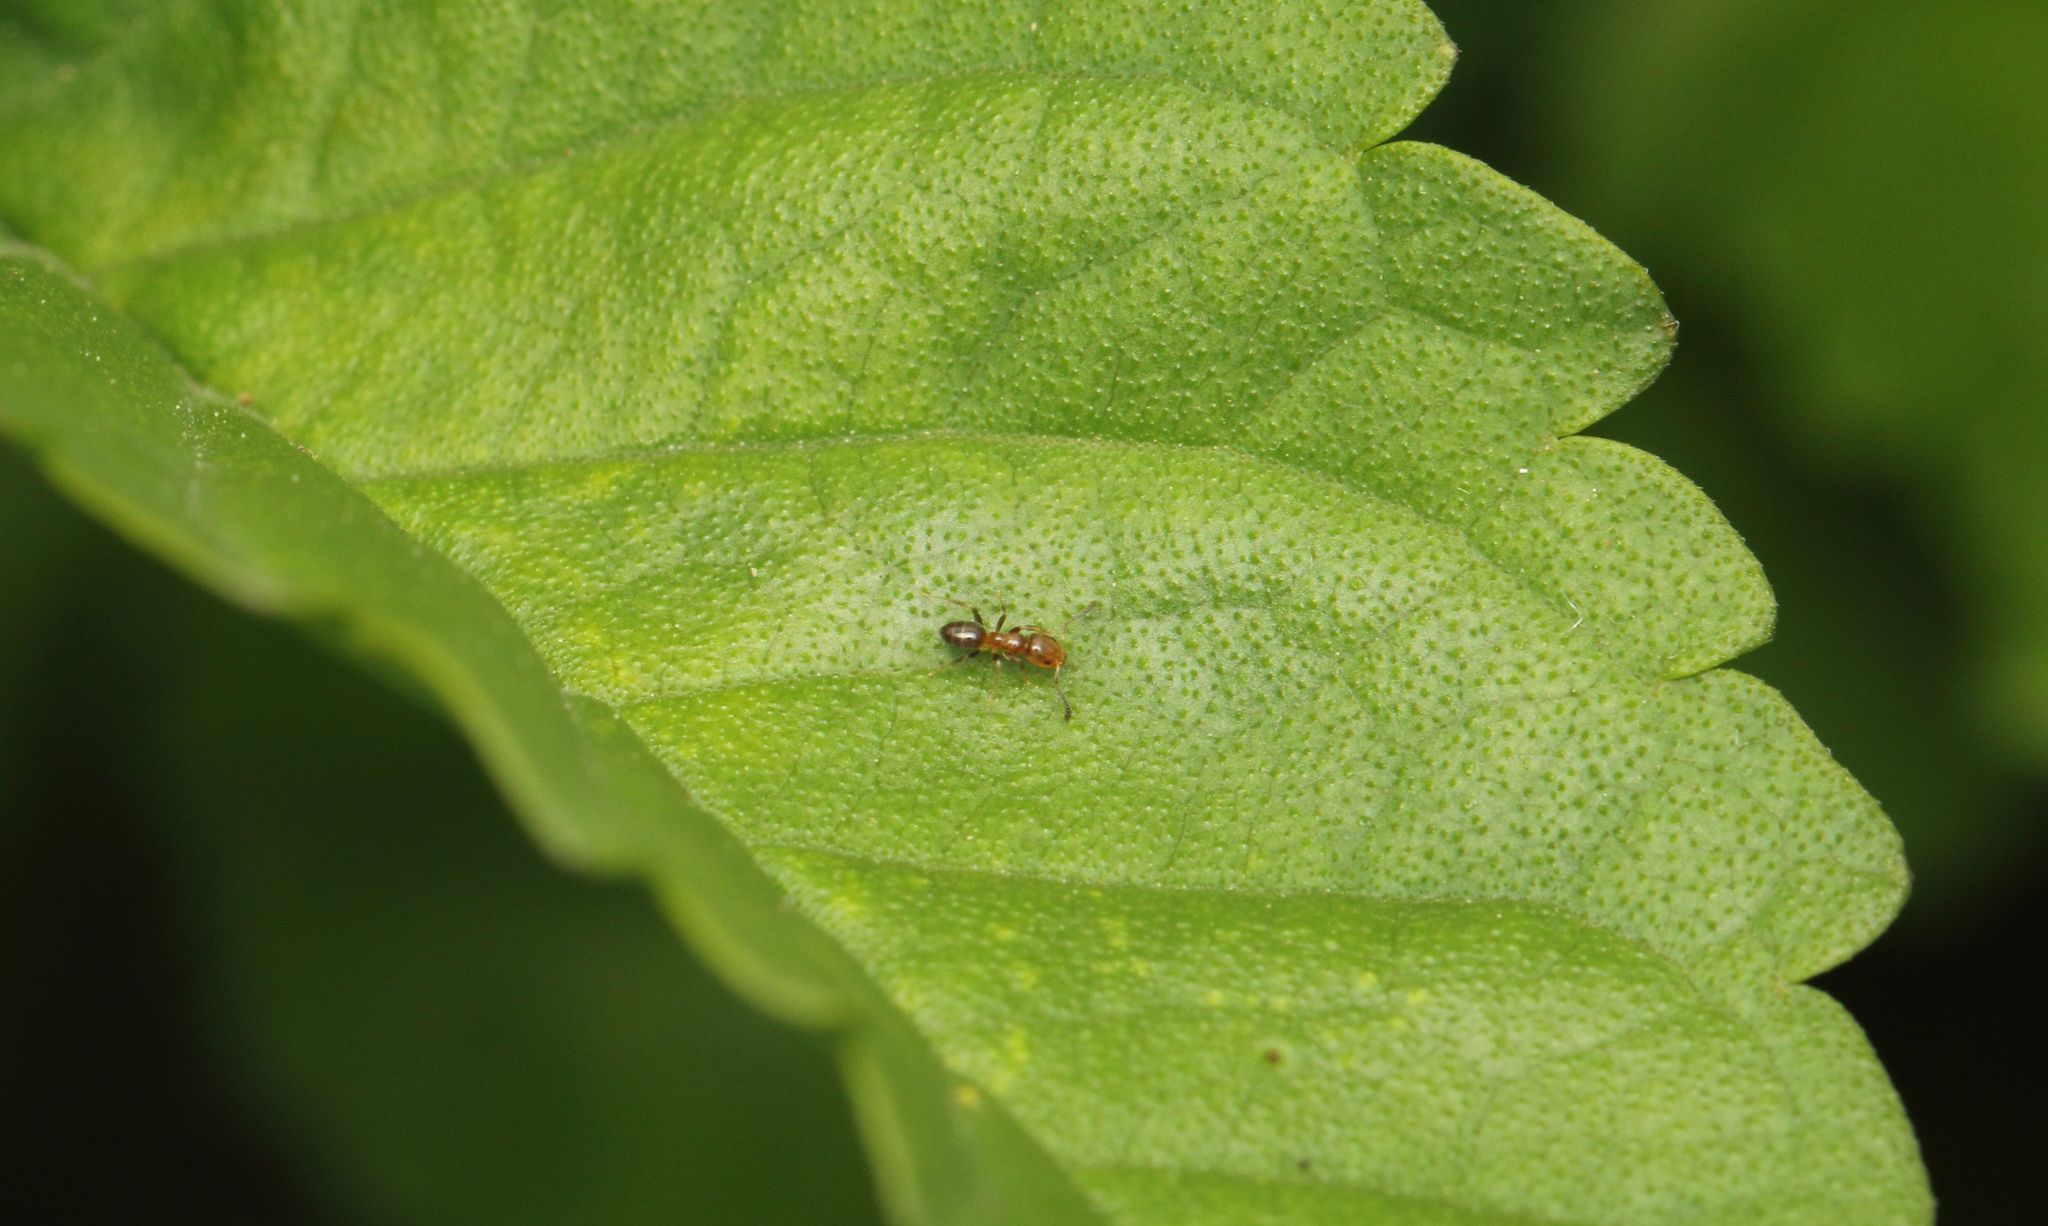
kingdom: Animalia
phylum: Arthropoda
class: Insecta
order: Hymenoptera
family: Formicidae
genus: Tapinoma
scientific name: Tapinoma minimum
